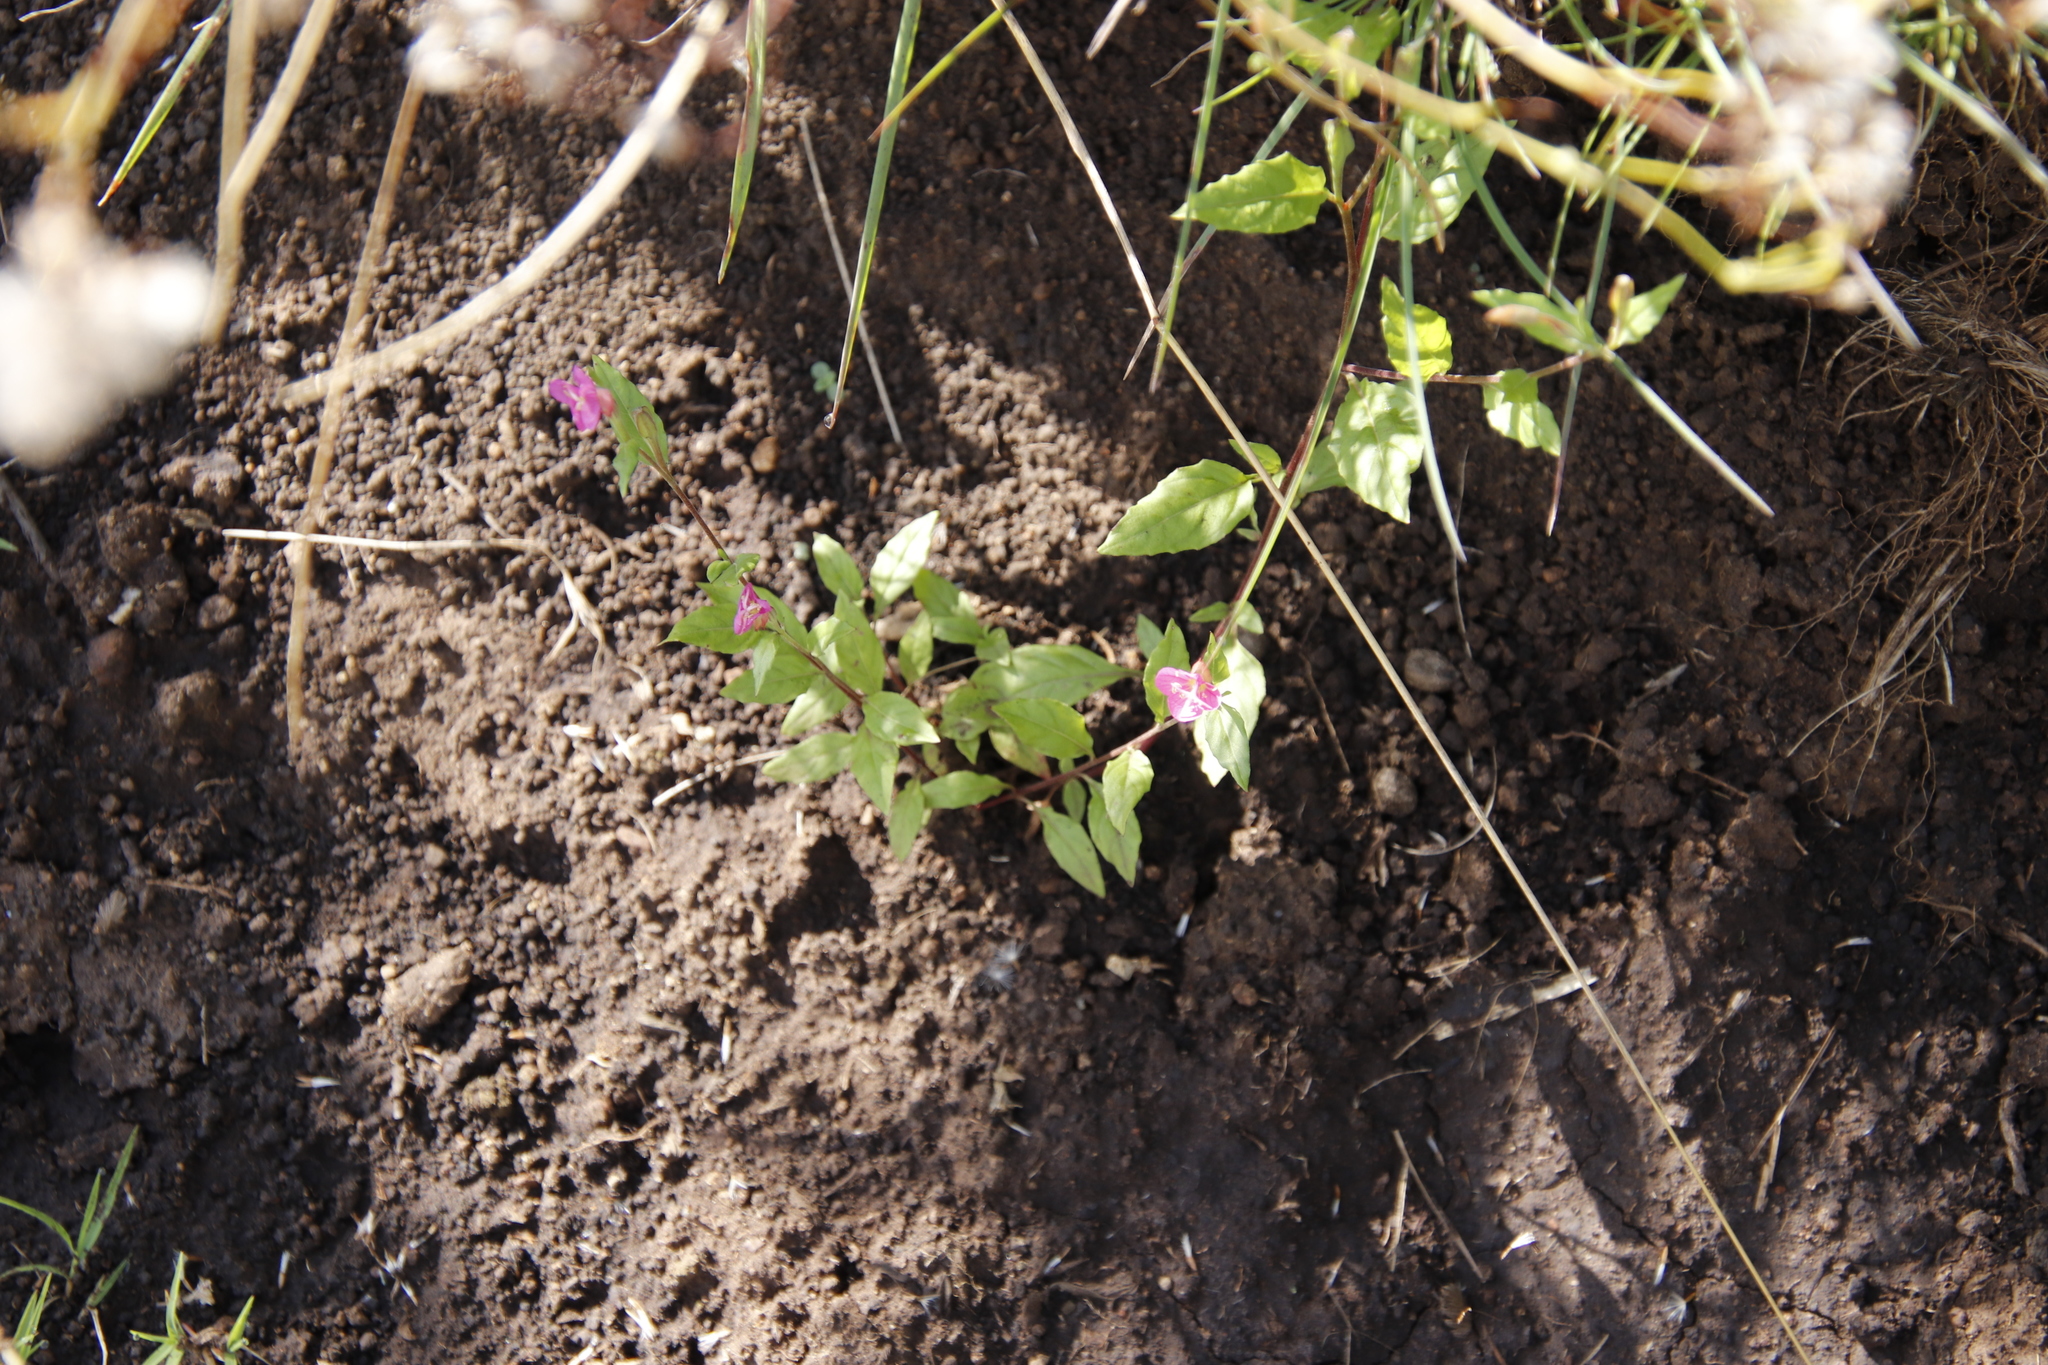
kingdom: Plantae
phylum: Tracheophyta
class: Magnoliopsida
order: Myrtales
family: Onagraceae
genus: Oenothera
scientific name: Oenothera rosea
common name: Rosy evening-primrose
